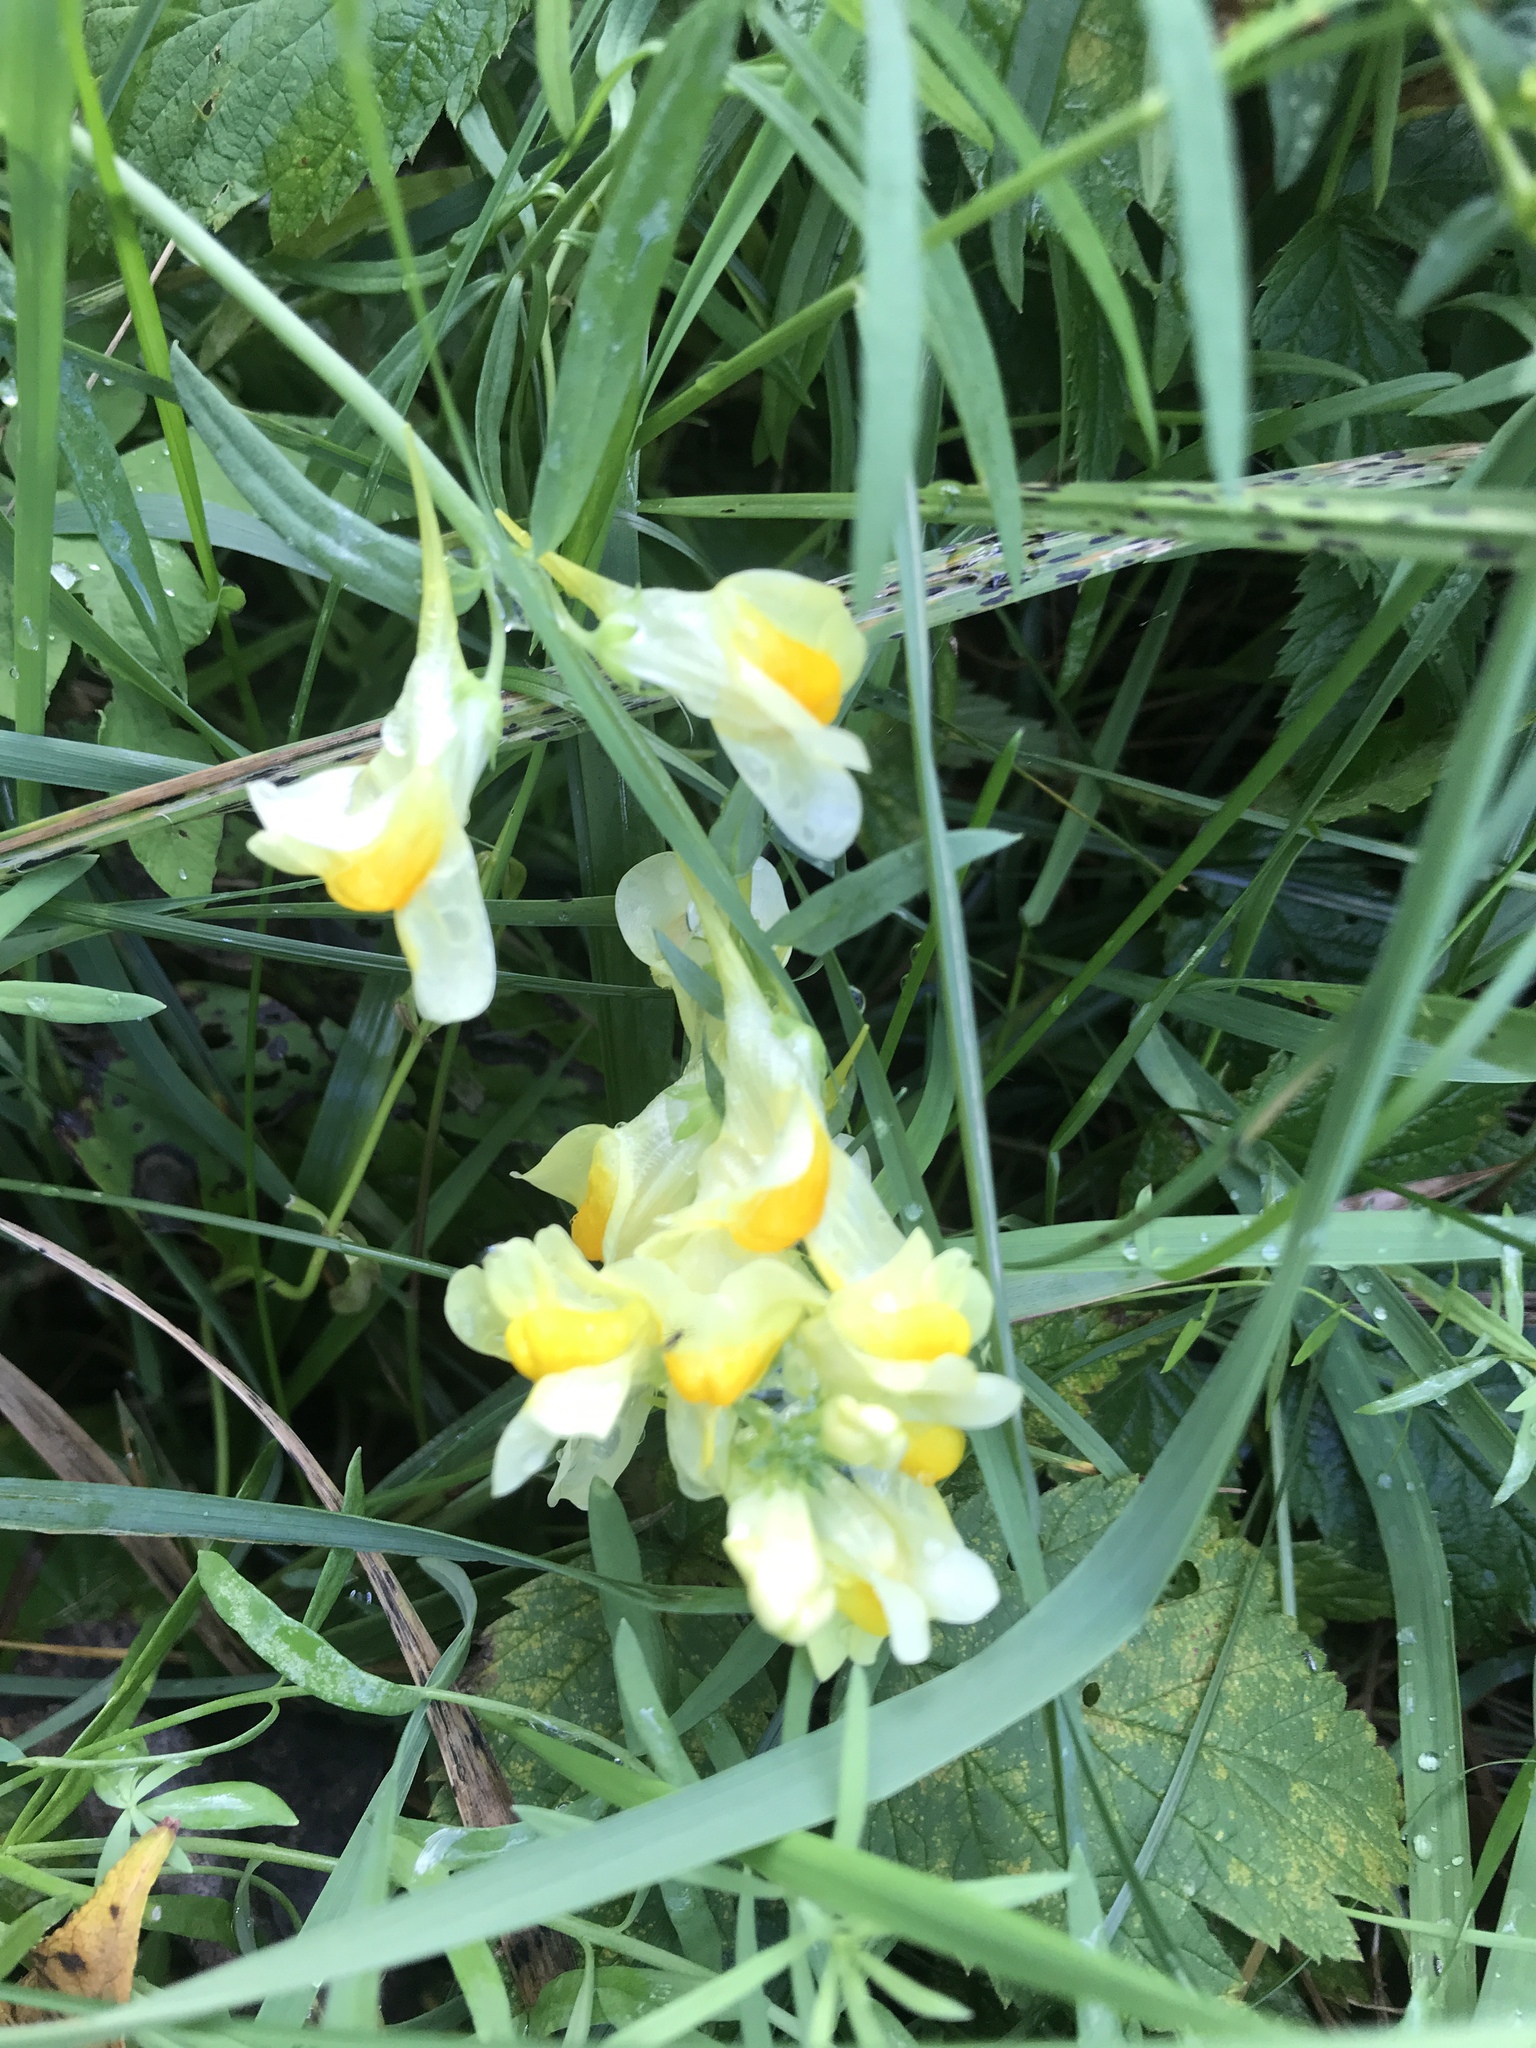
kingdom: Plantae
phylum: Tracheophyta
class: Magnoliopsida
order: Lamiales
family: Plantaginaceae
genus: Linaria
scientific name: Linaria vulgaris
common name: Butter and eggs
